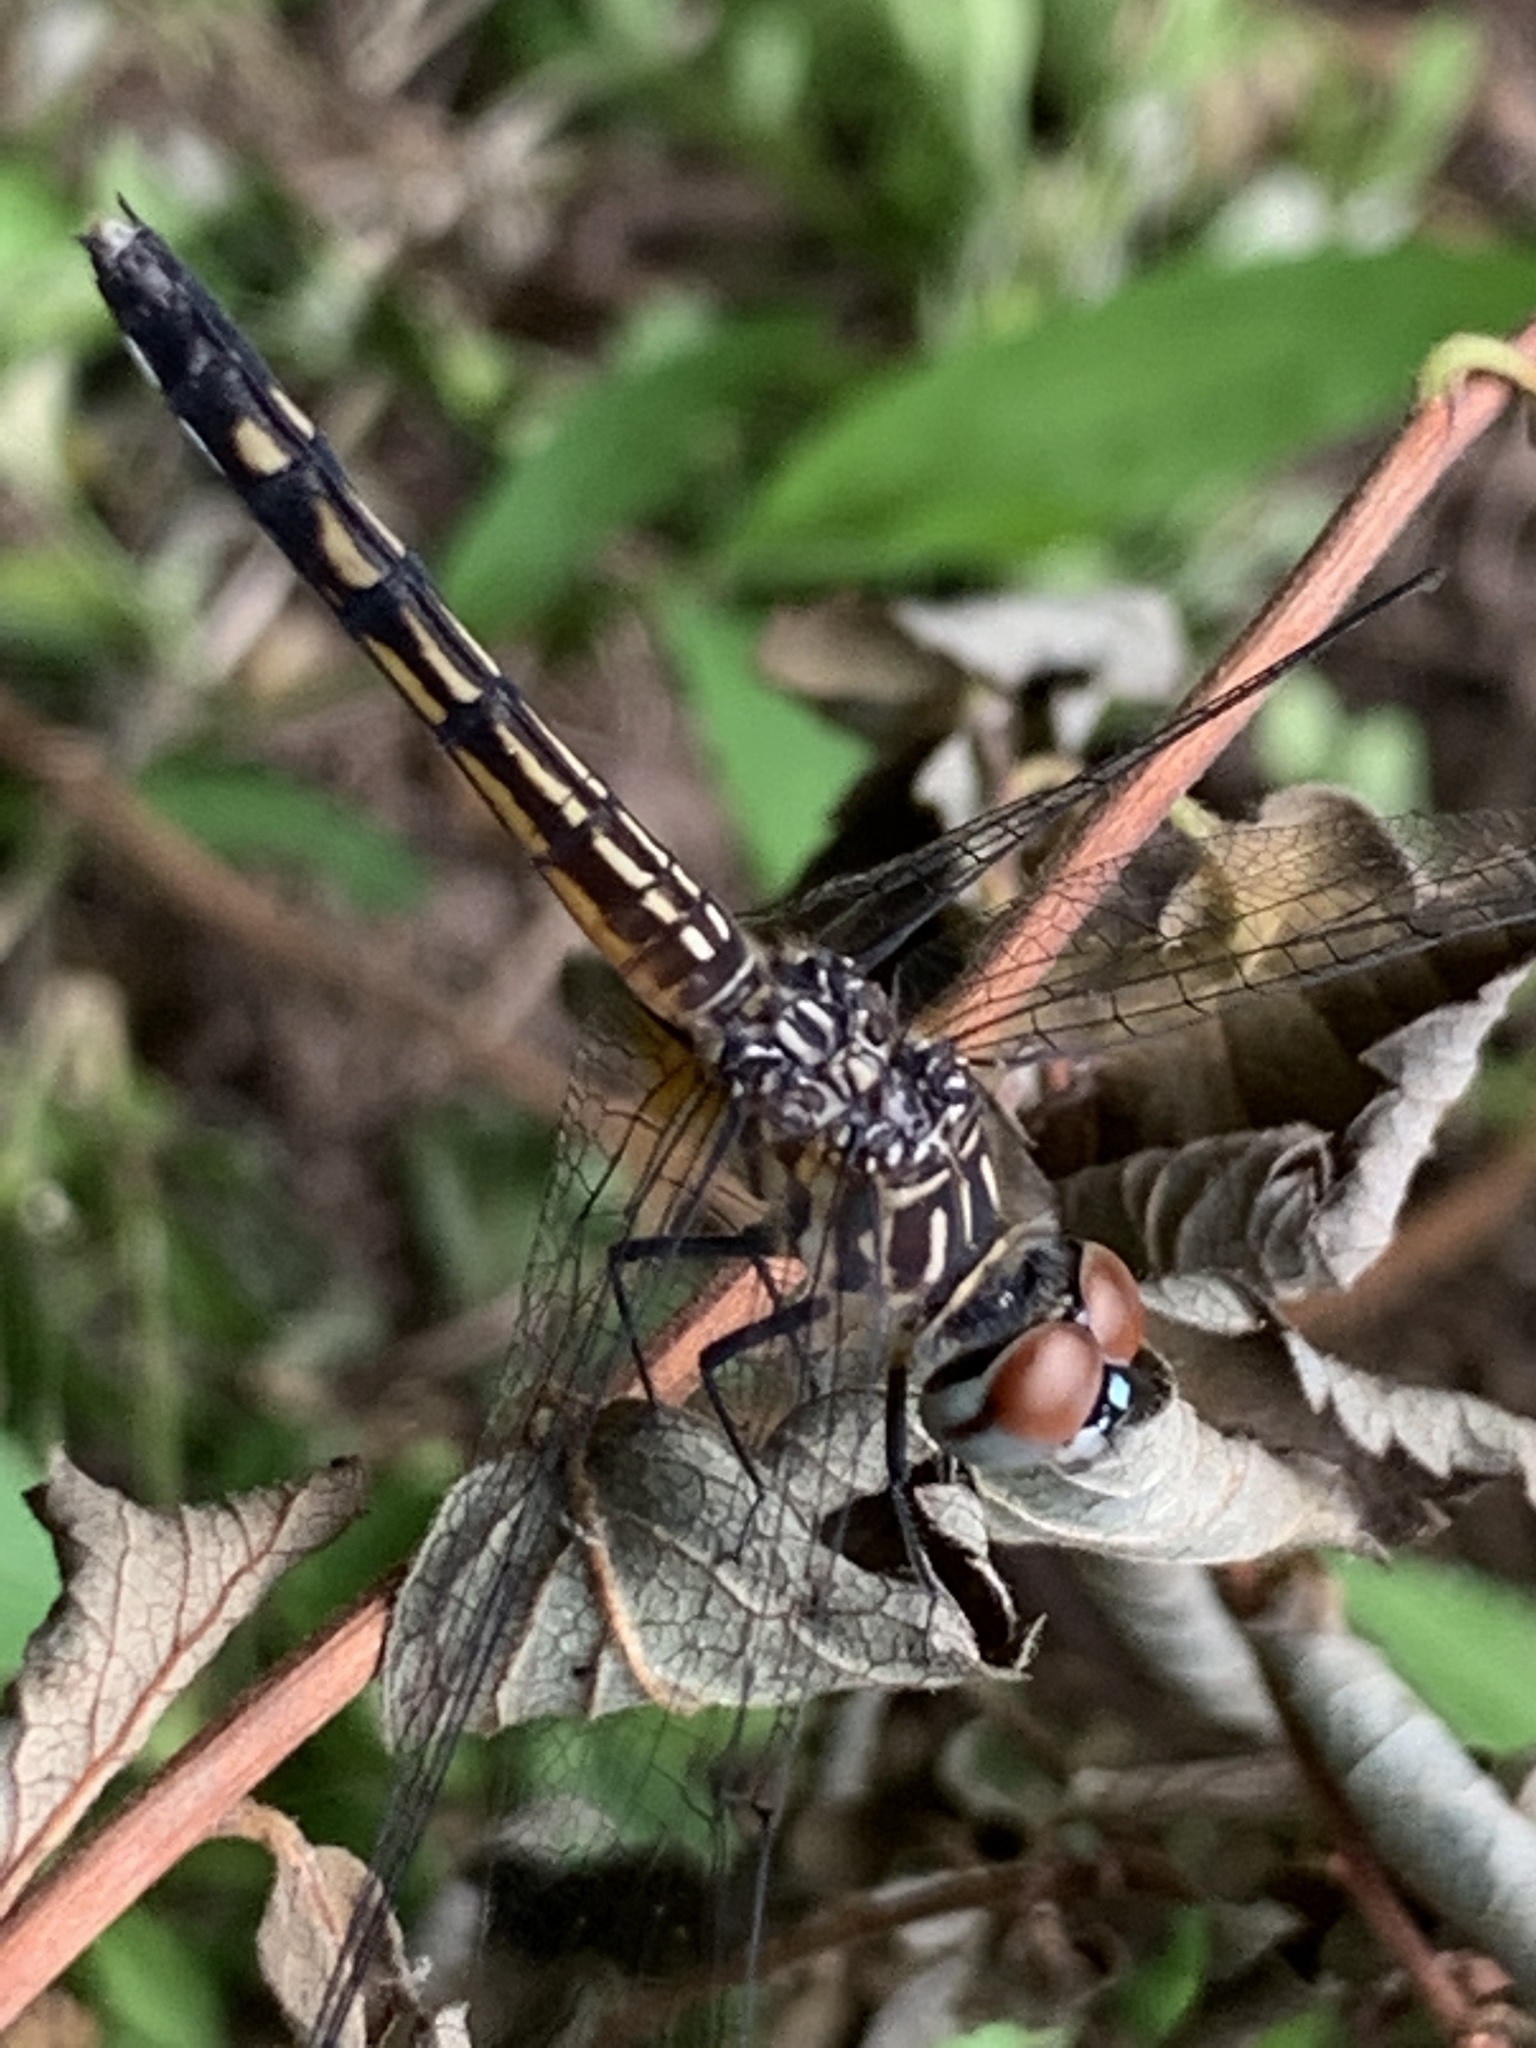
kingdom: Animalia
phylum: Arthropoda
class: Insecta
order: Odonata
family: Libellulidae
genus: Pachydiplax
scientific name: Pachydiplax longipennis
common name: Blue dasher
